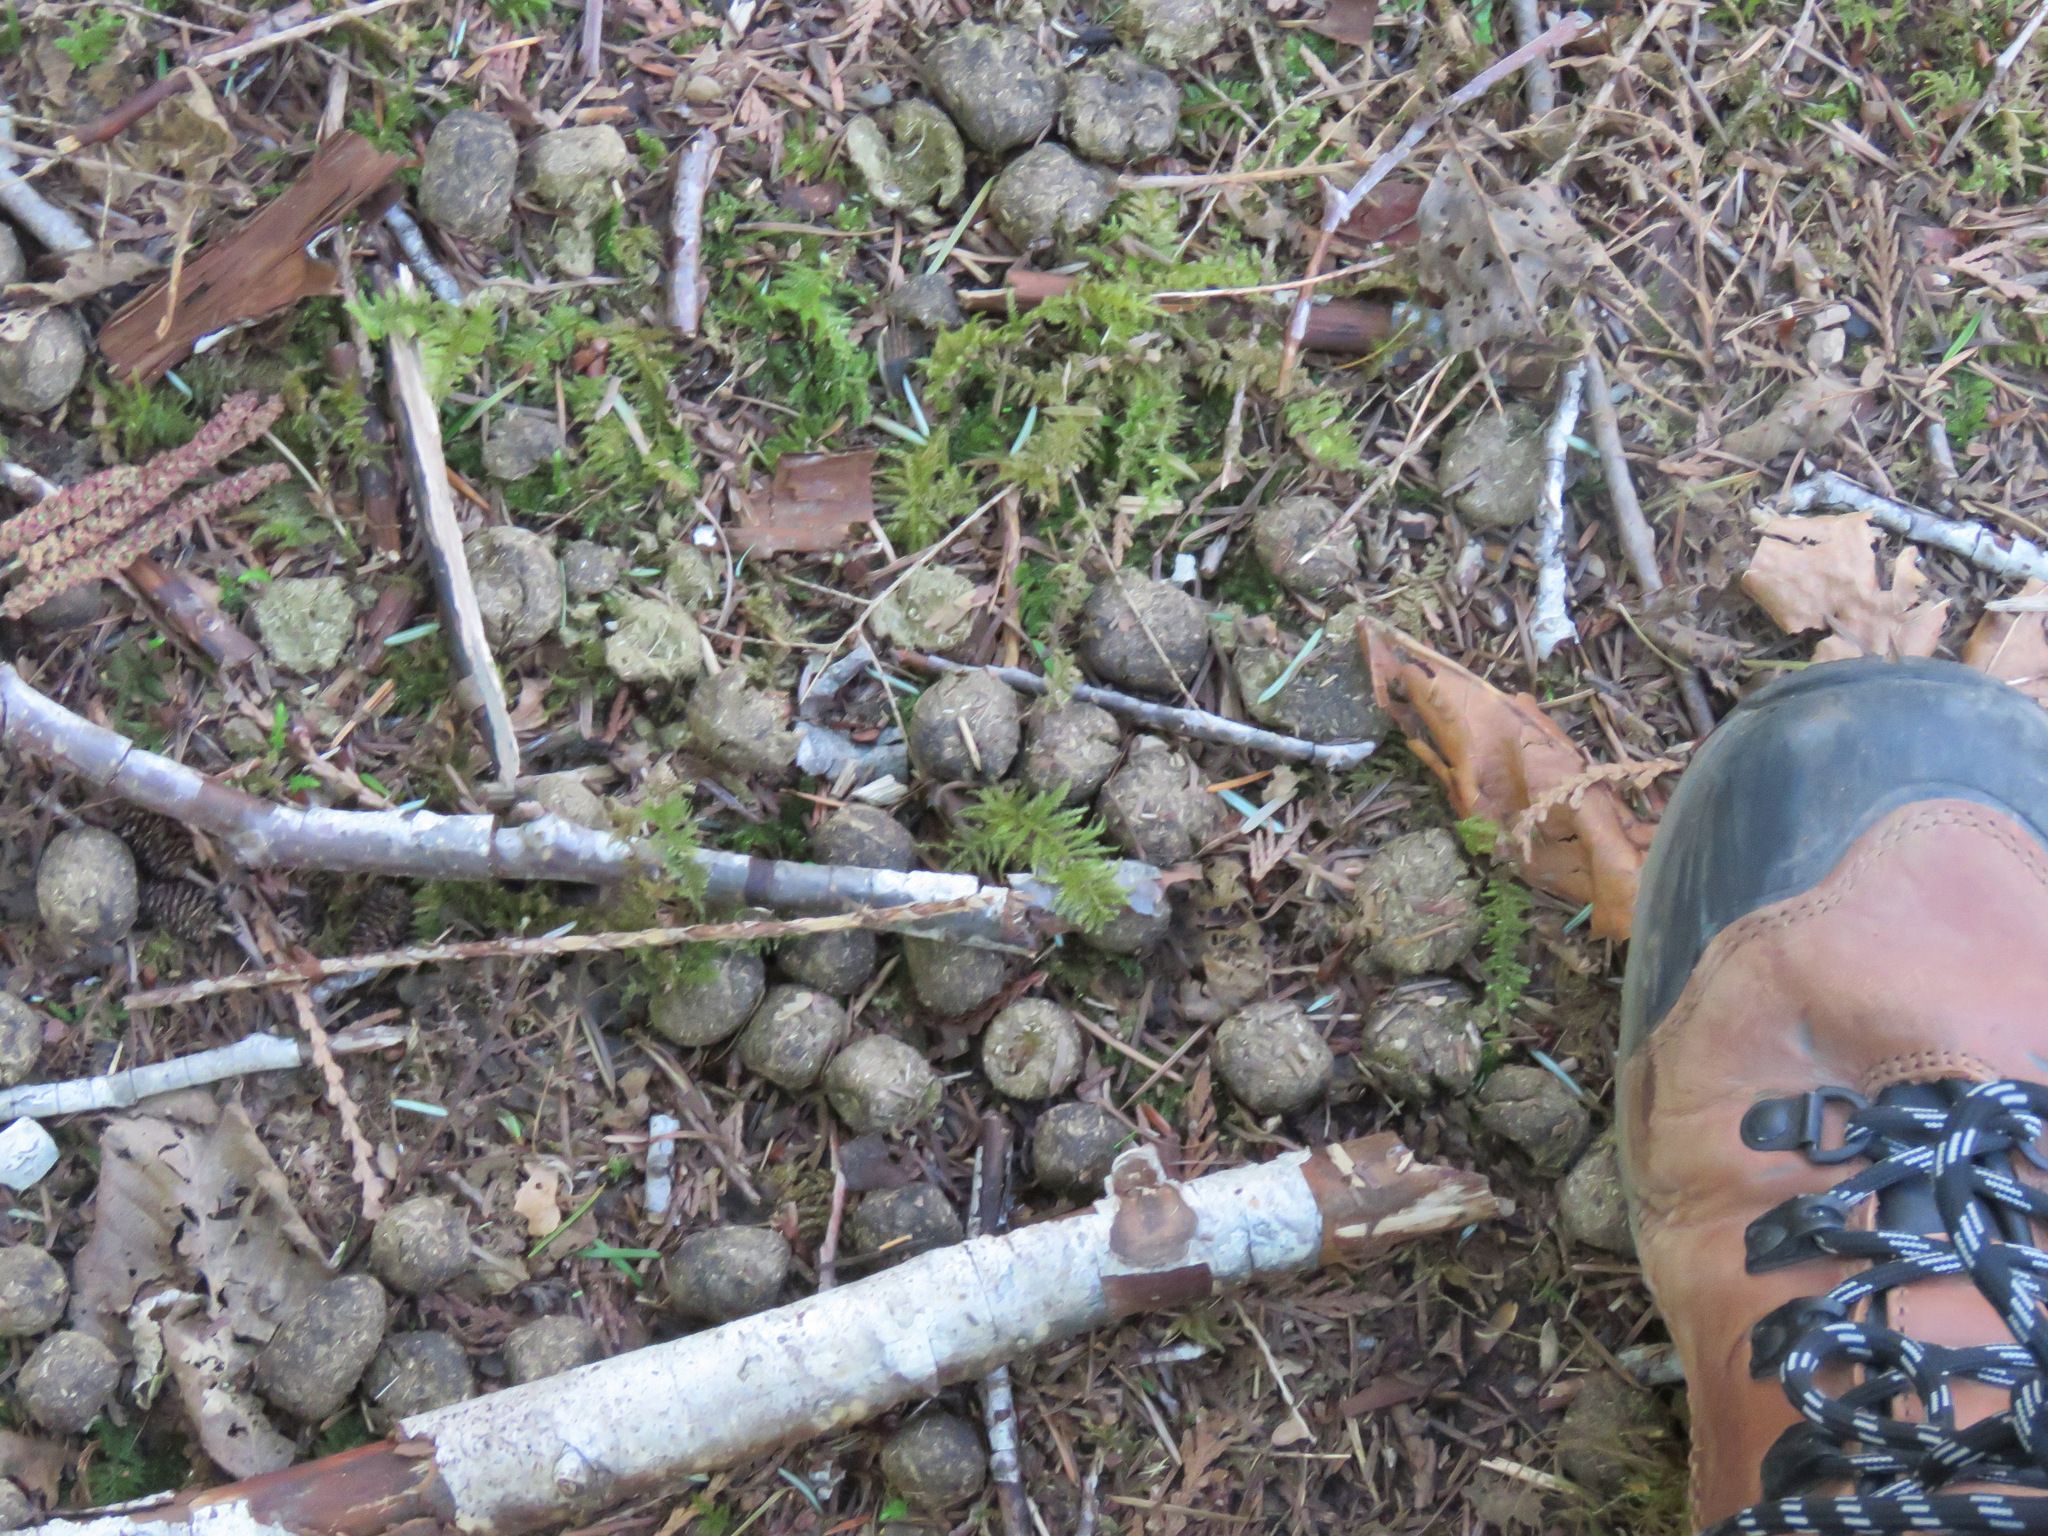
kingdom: Animalia
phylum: Chordata
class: Mammalia
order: Artiodactyla
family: Cervidae
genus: Cervus
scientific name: Cervus elaphus
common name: Red deer
